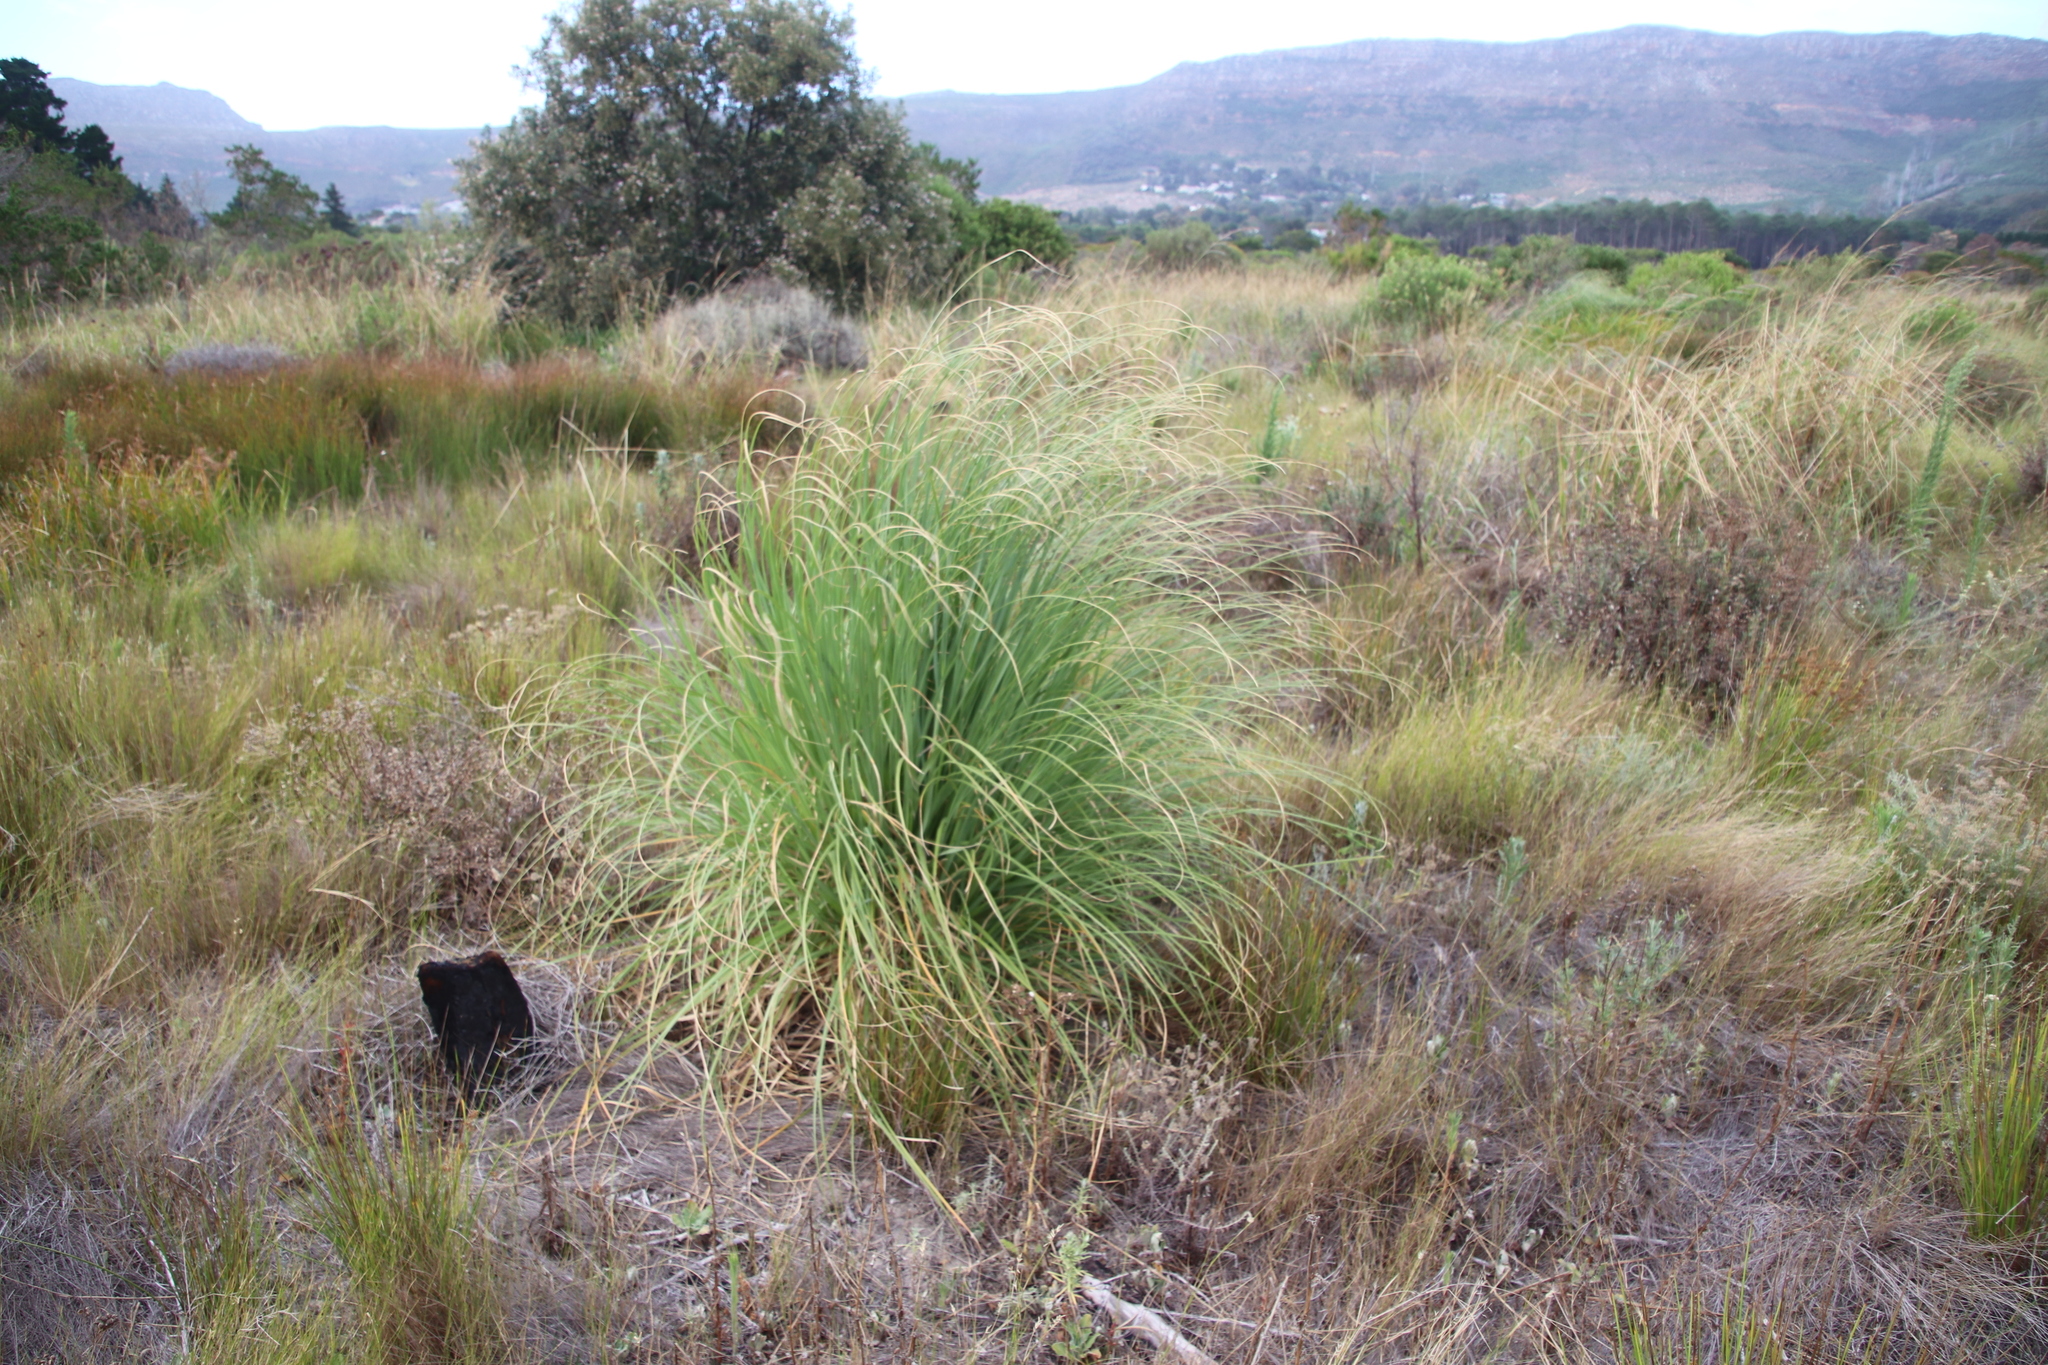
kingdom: Plantae
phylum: Tracheophyta
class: Liliopsida
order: Poales
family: Poaceae
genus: Cortaderia
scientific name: Cortaderia selloana
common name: Uruguayan pampas grass
